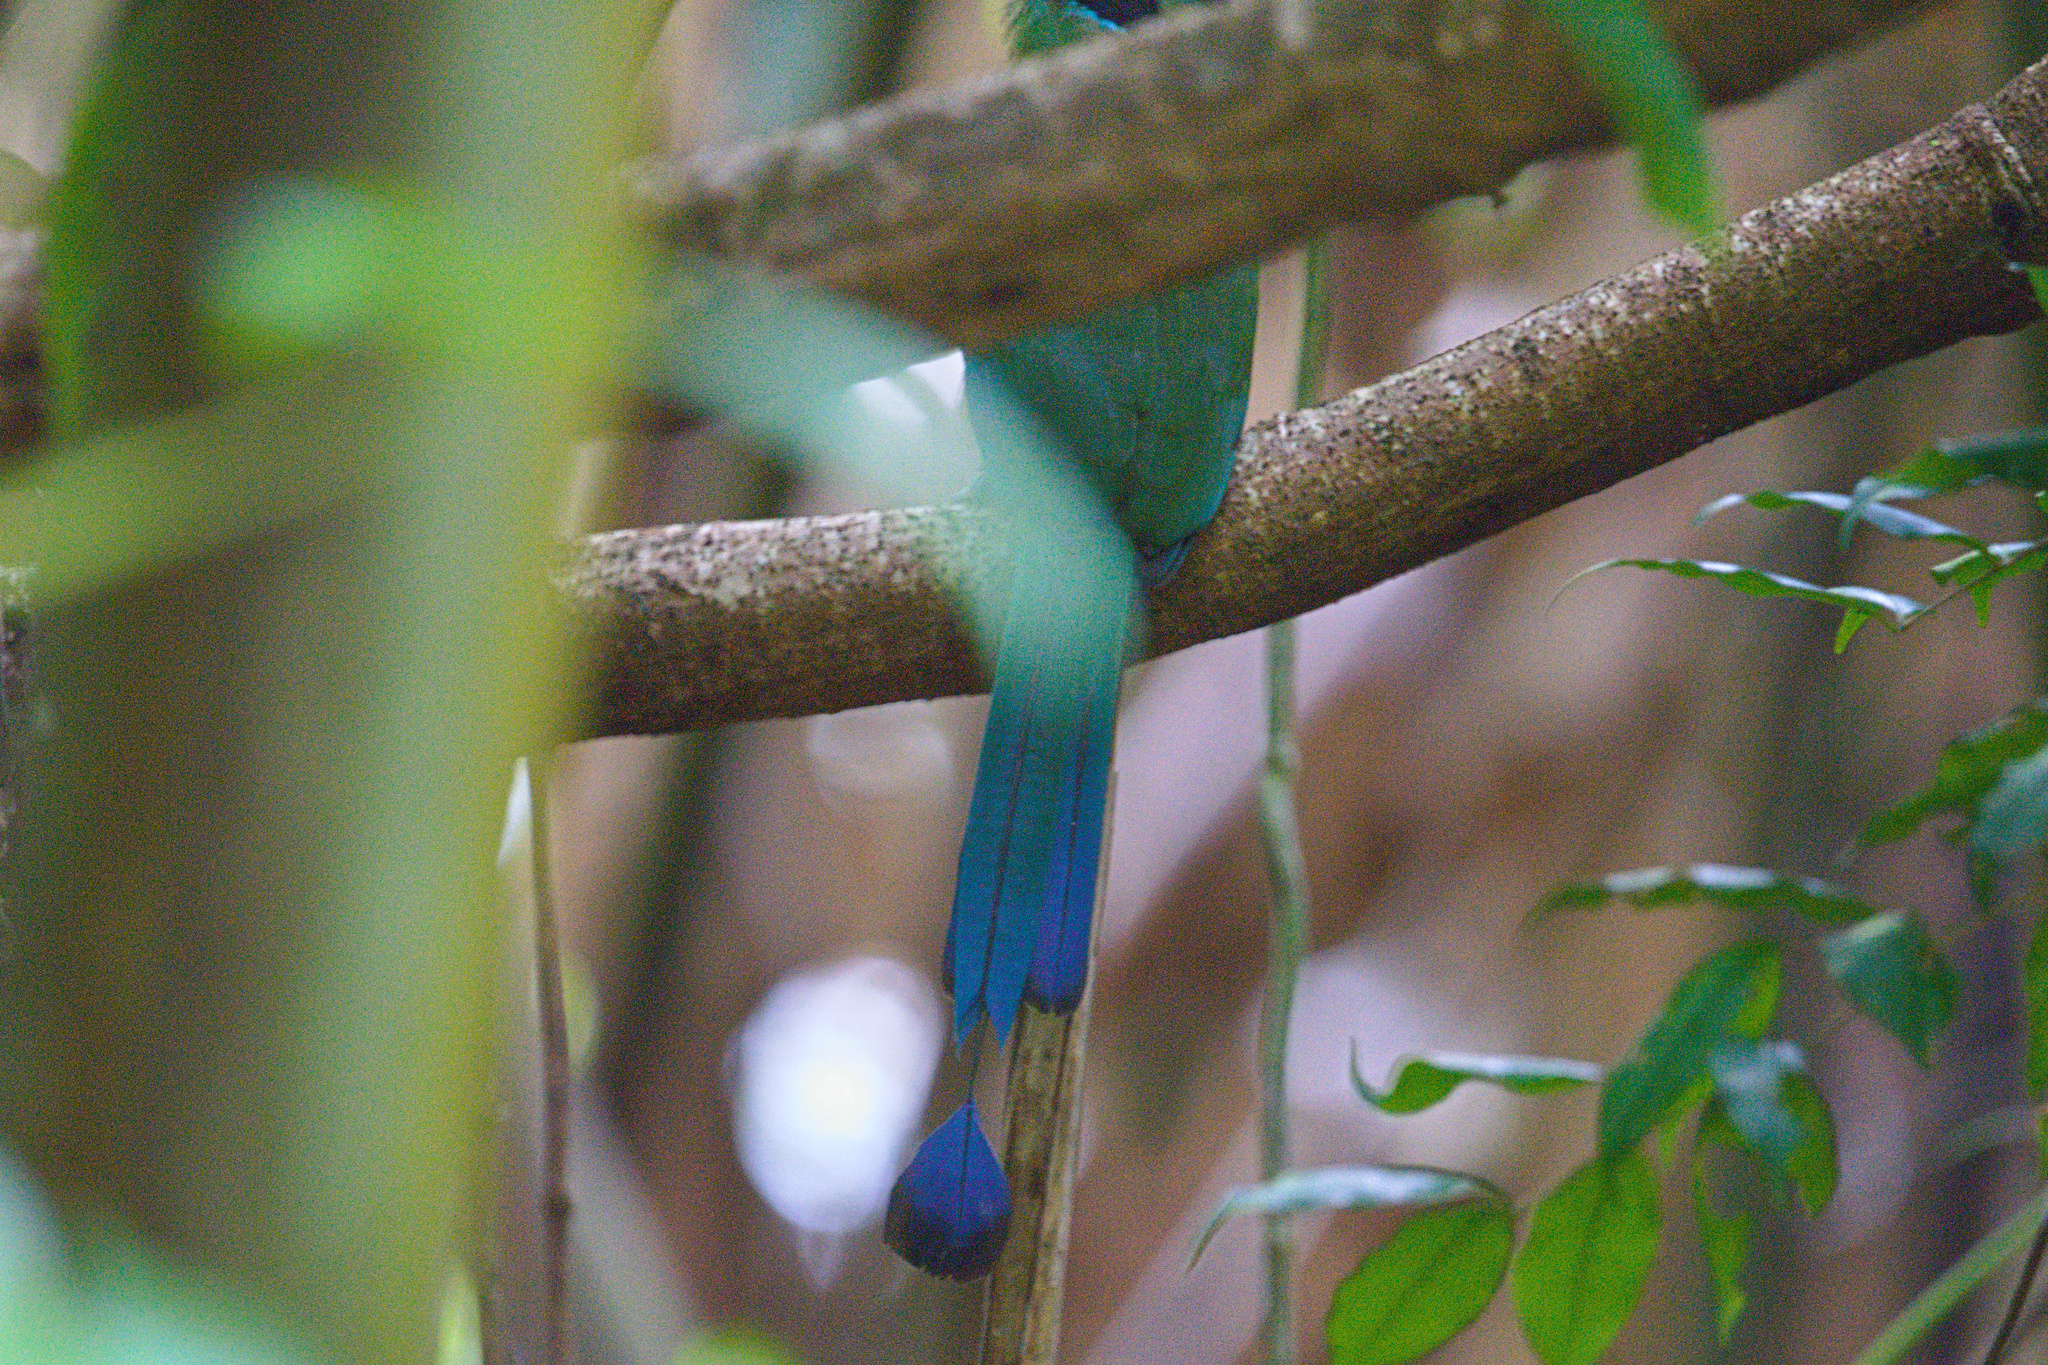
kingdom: Animalia
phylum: Chordata
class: Aves
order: Coraciiformes
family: Momotidae
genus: Momotus
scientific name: Momotus lessonii
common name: Lesson's motmot
